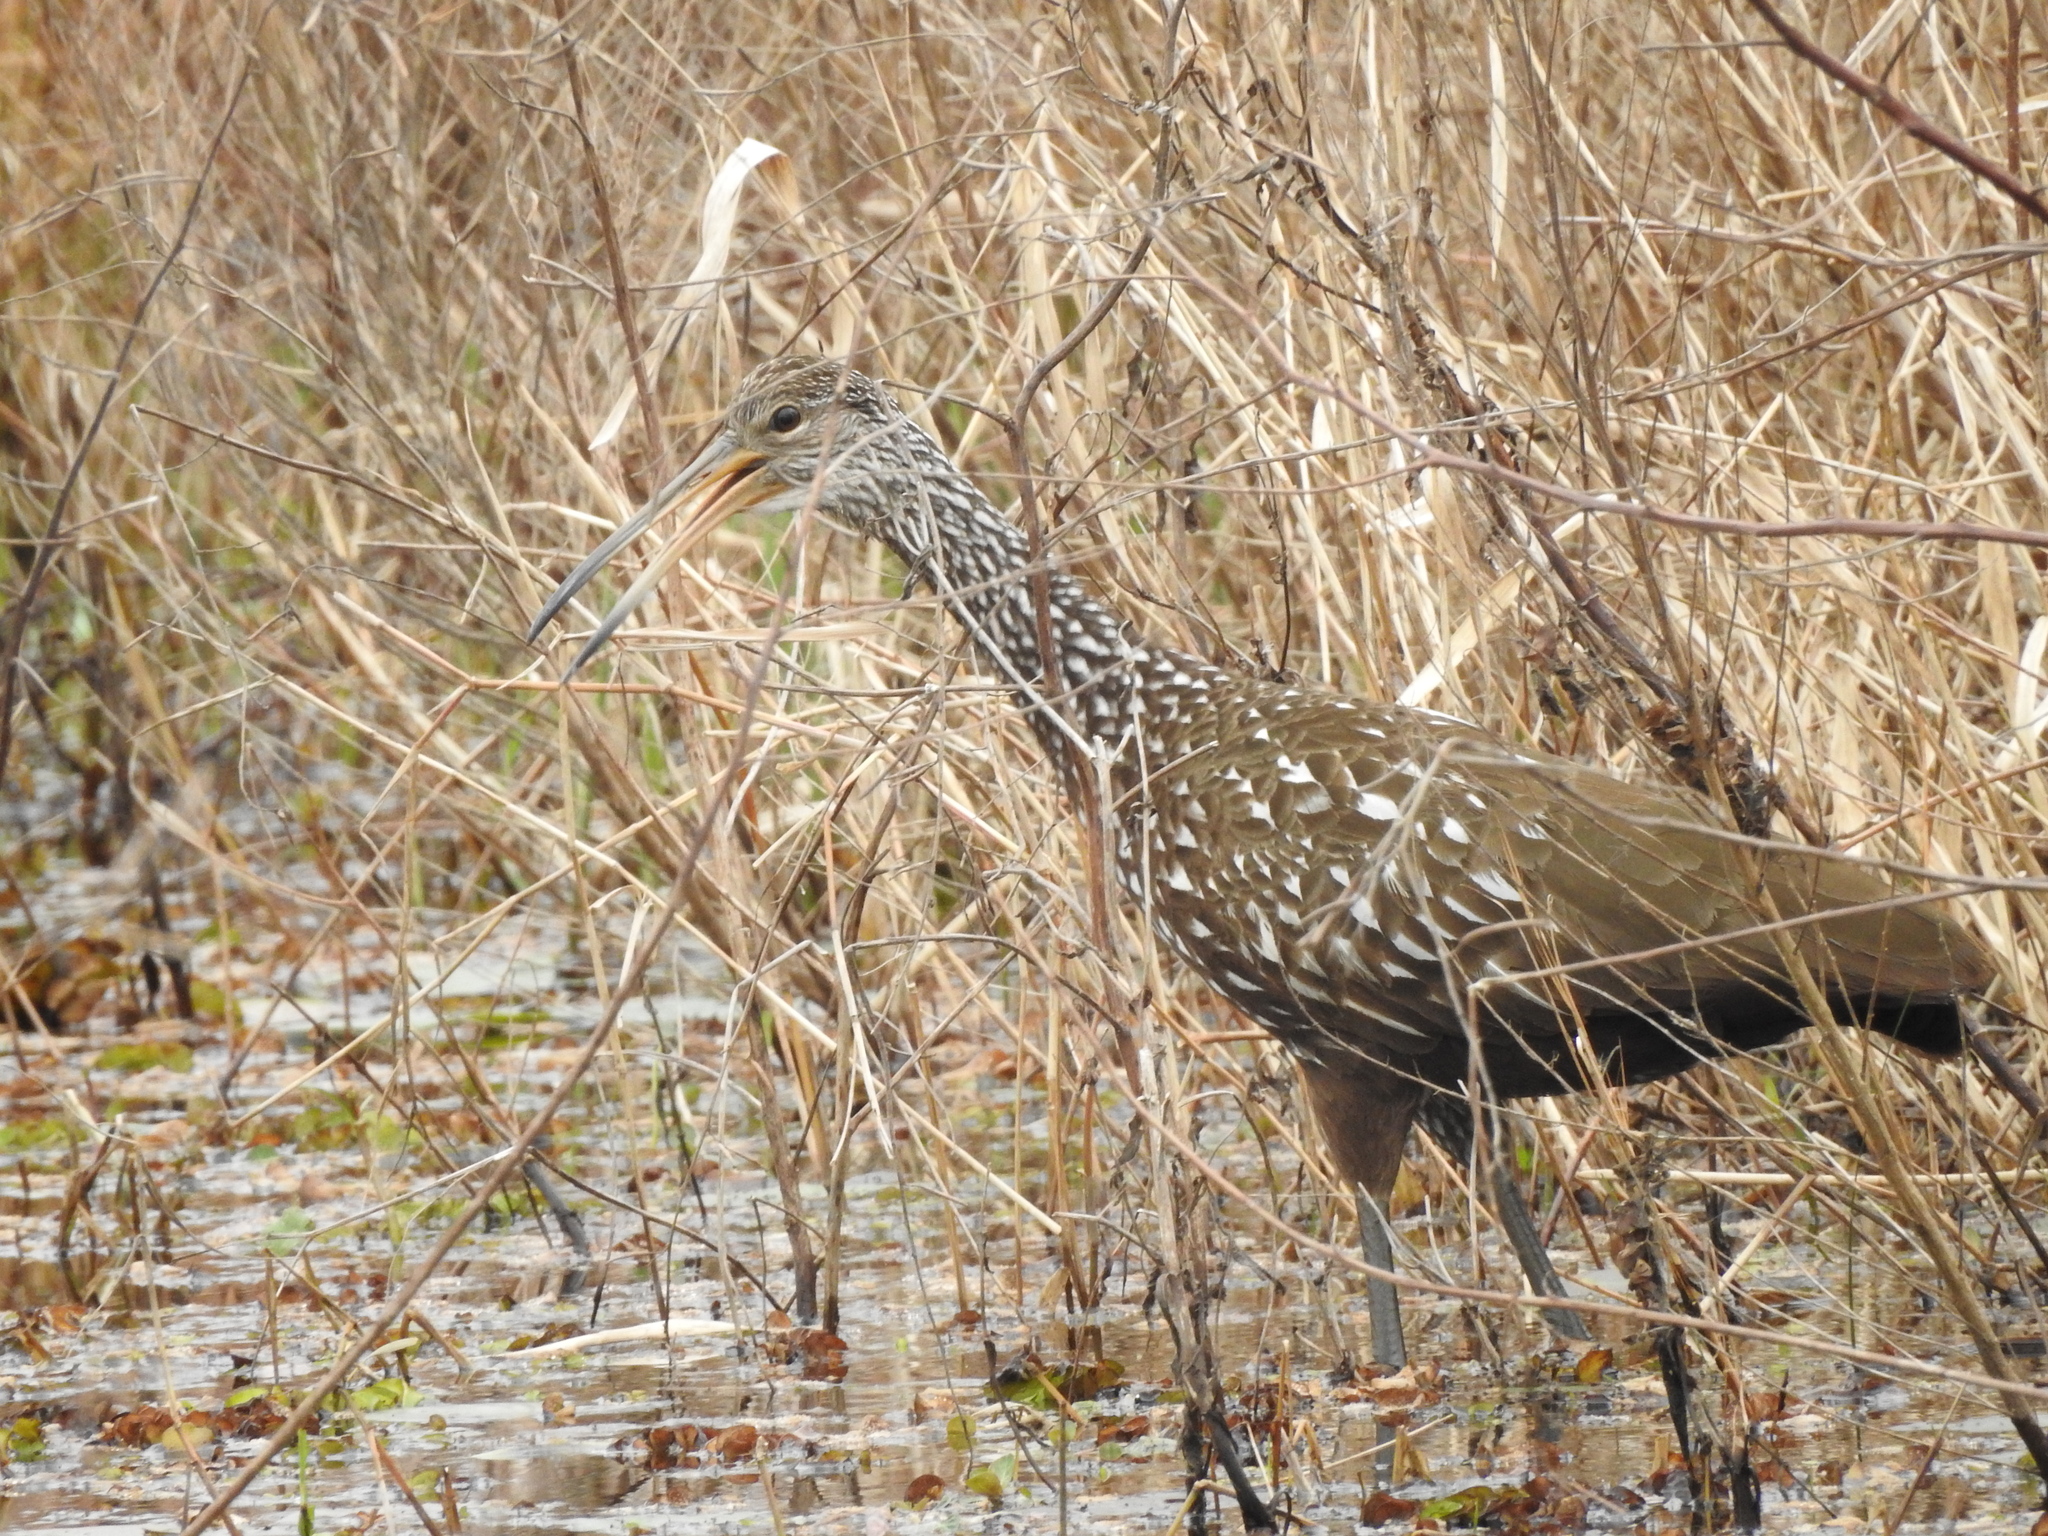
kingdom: Animalia
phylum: Chordata
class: Aves
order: Gruiformes
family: Aramidae
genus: Aramus
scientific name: Aramus guarauna
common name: Limpkin
